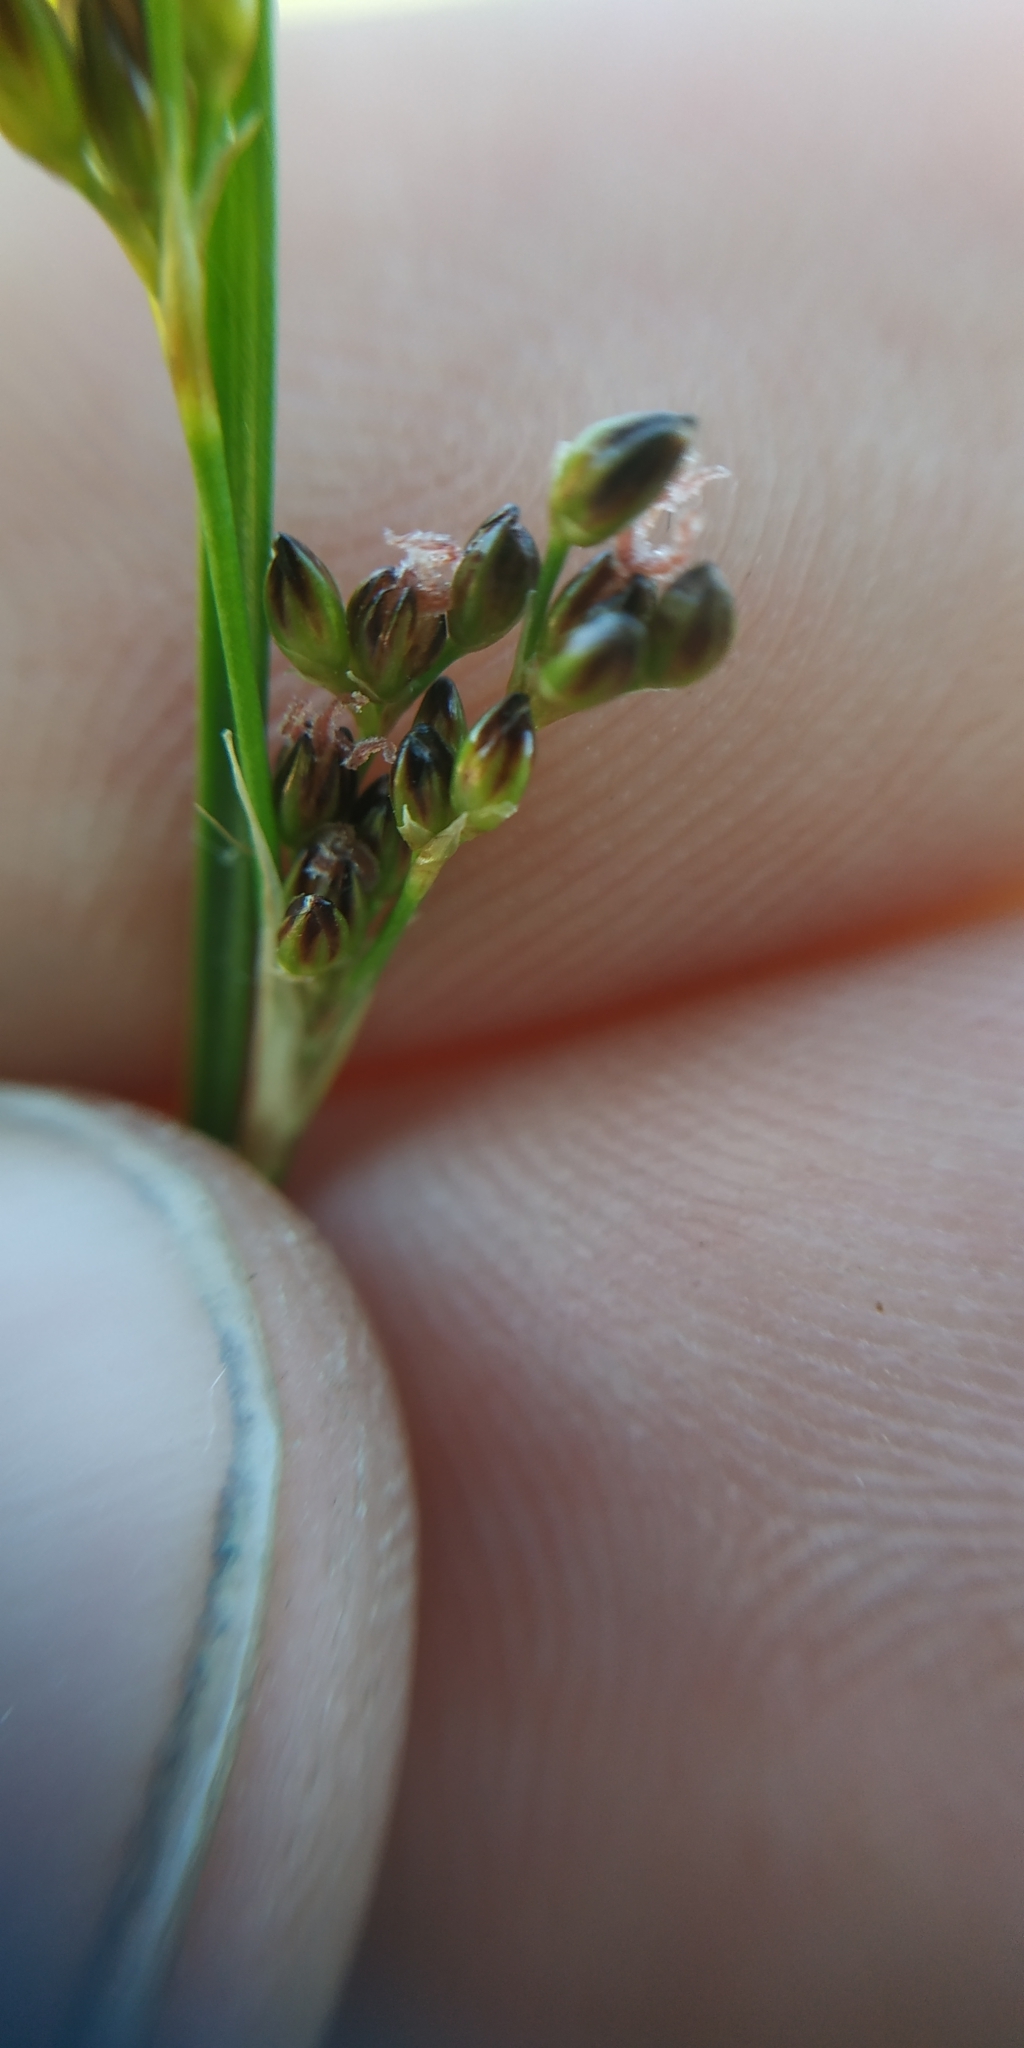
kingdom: Plantae
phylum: Tracheophyta
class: Liliopsida
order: Poales
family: Juncaceae
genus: Juncus
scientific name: Juncus compressus
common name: Round-fruited rush
